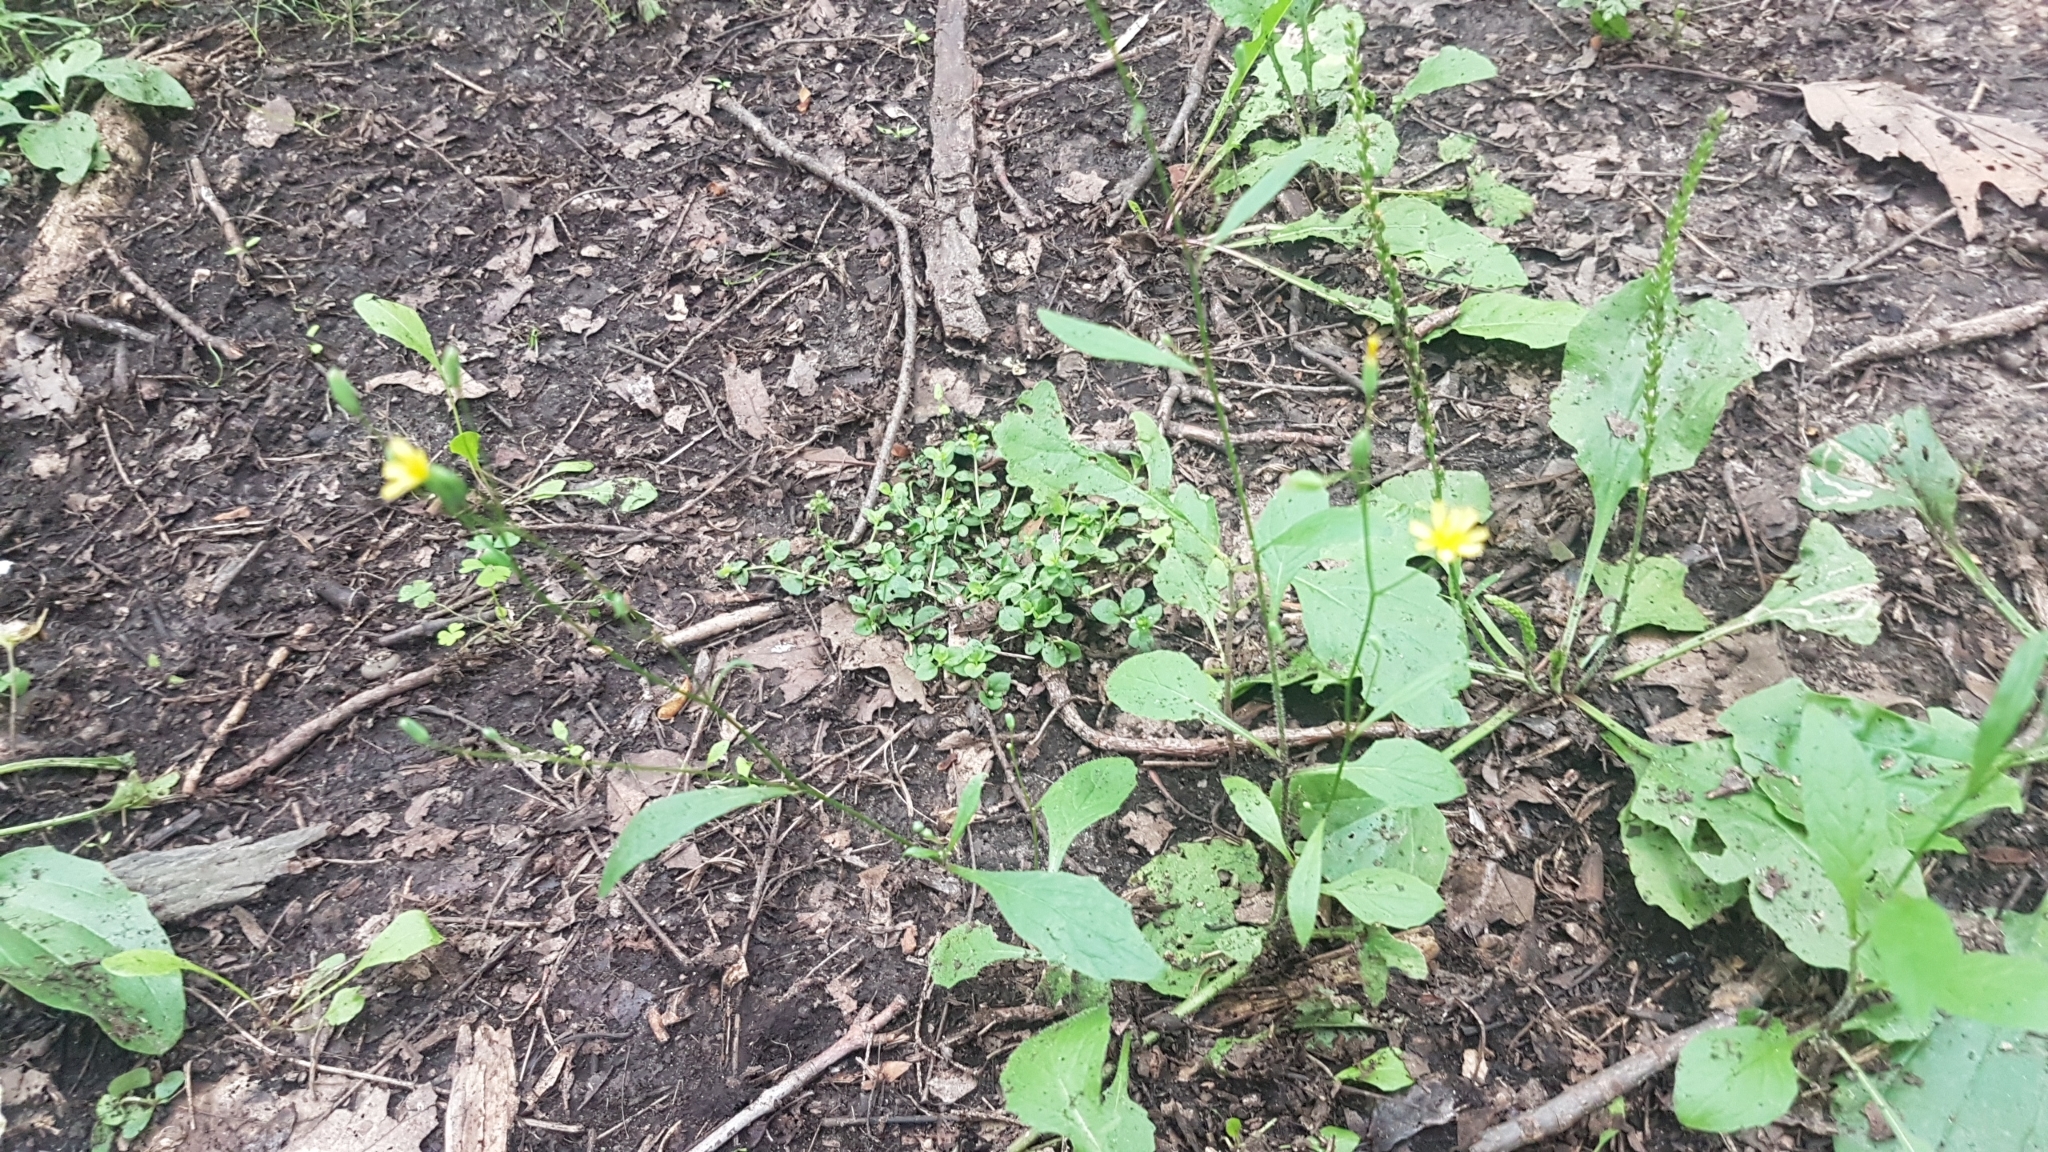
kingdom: Plantae
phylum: Tracheophyta
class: Magnoliopsida
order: Asterales
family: Asteraceae
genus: Lapsana
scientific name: Lapsana communis
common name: Nipplewort
